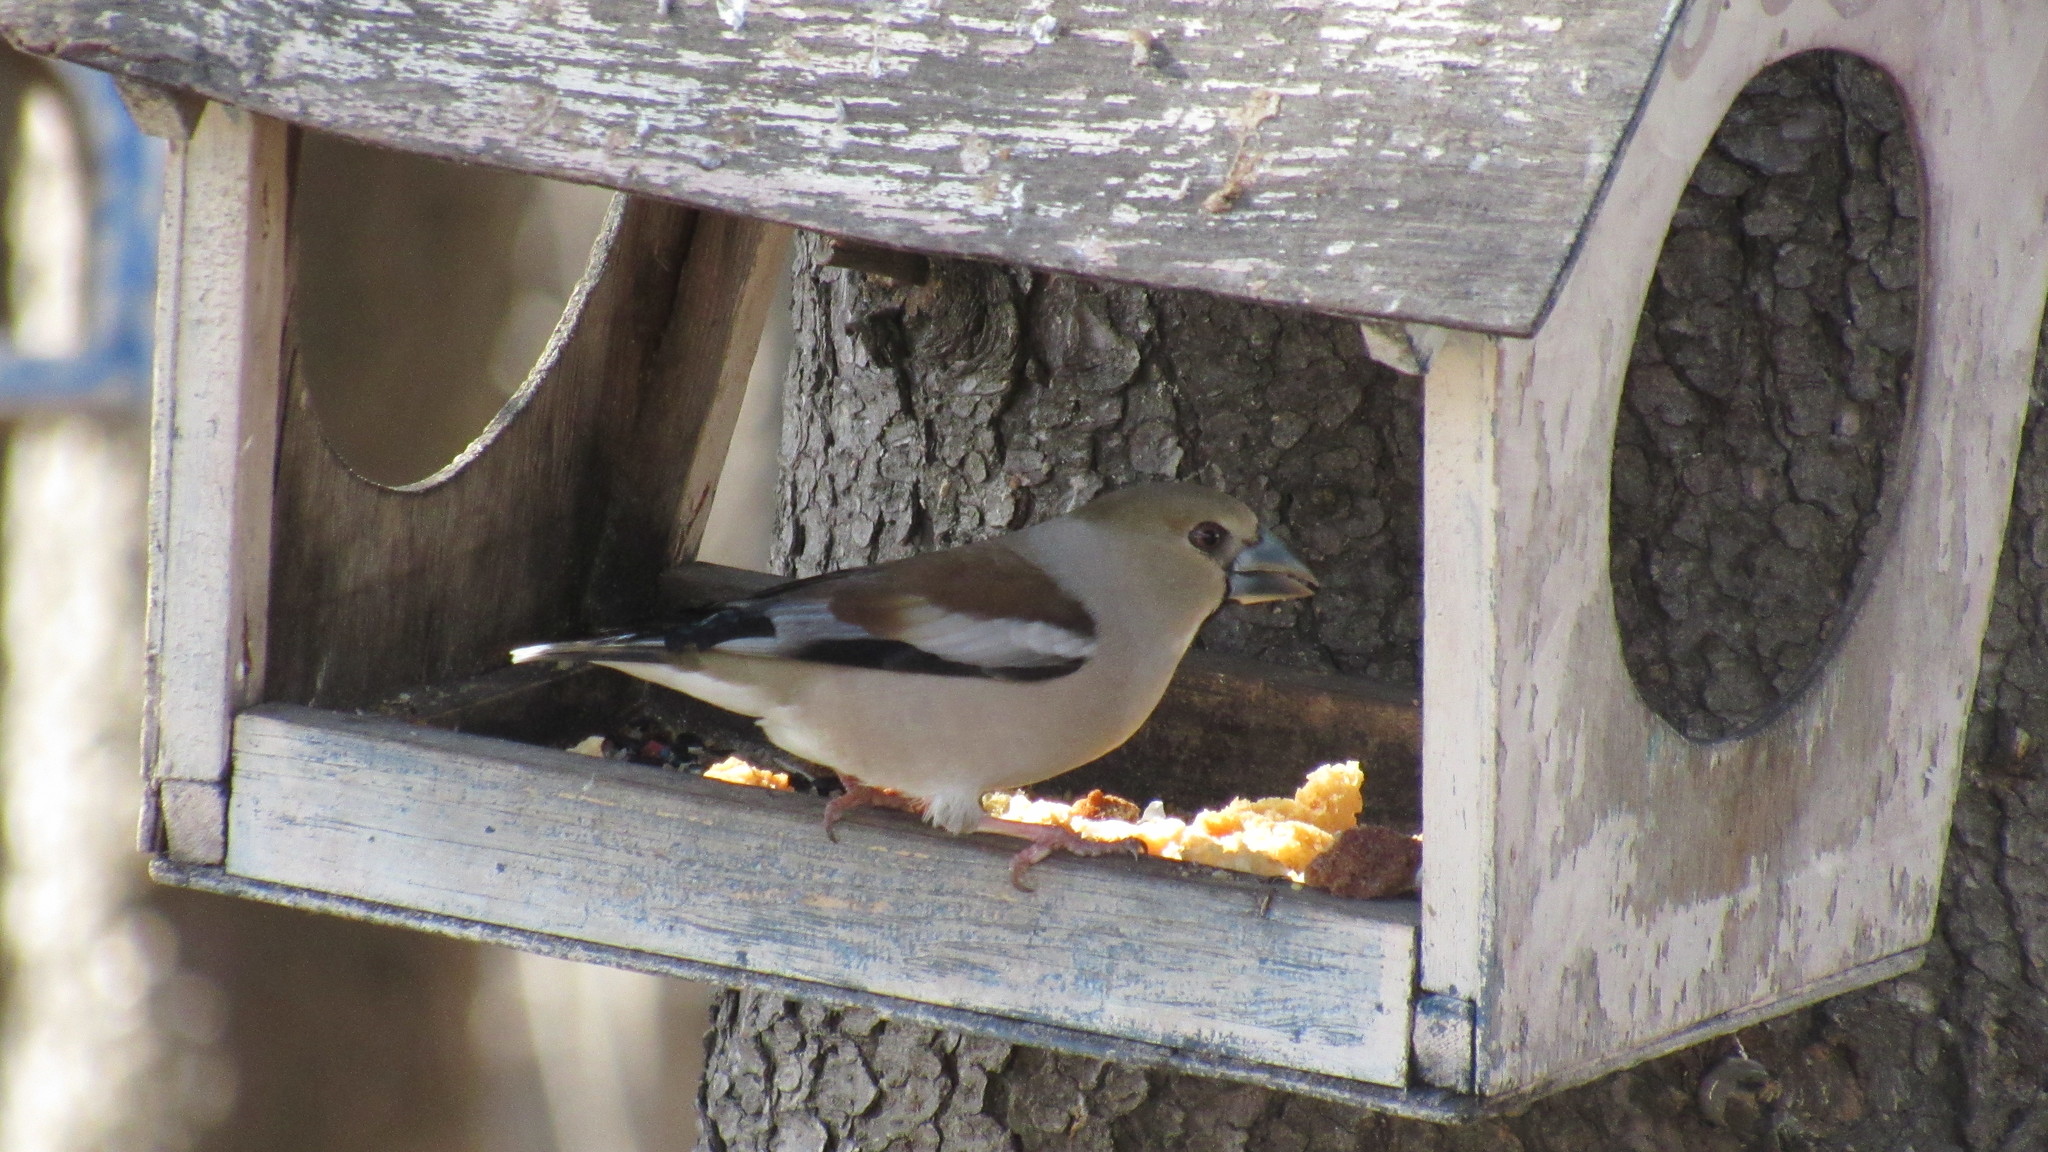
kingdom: Animalia
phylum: Chordata
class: Aves
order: Passeriformes
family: Fringillidae
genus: Coccothraustes
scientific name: Coccothraustes coccothraustes
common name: Hawfinch
